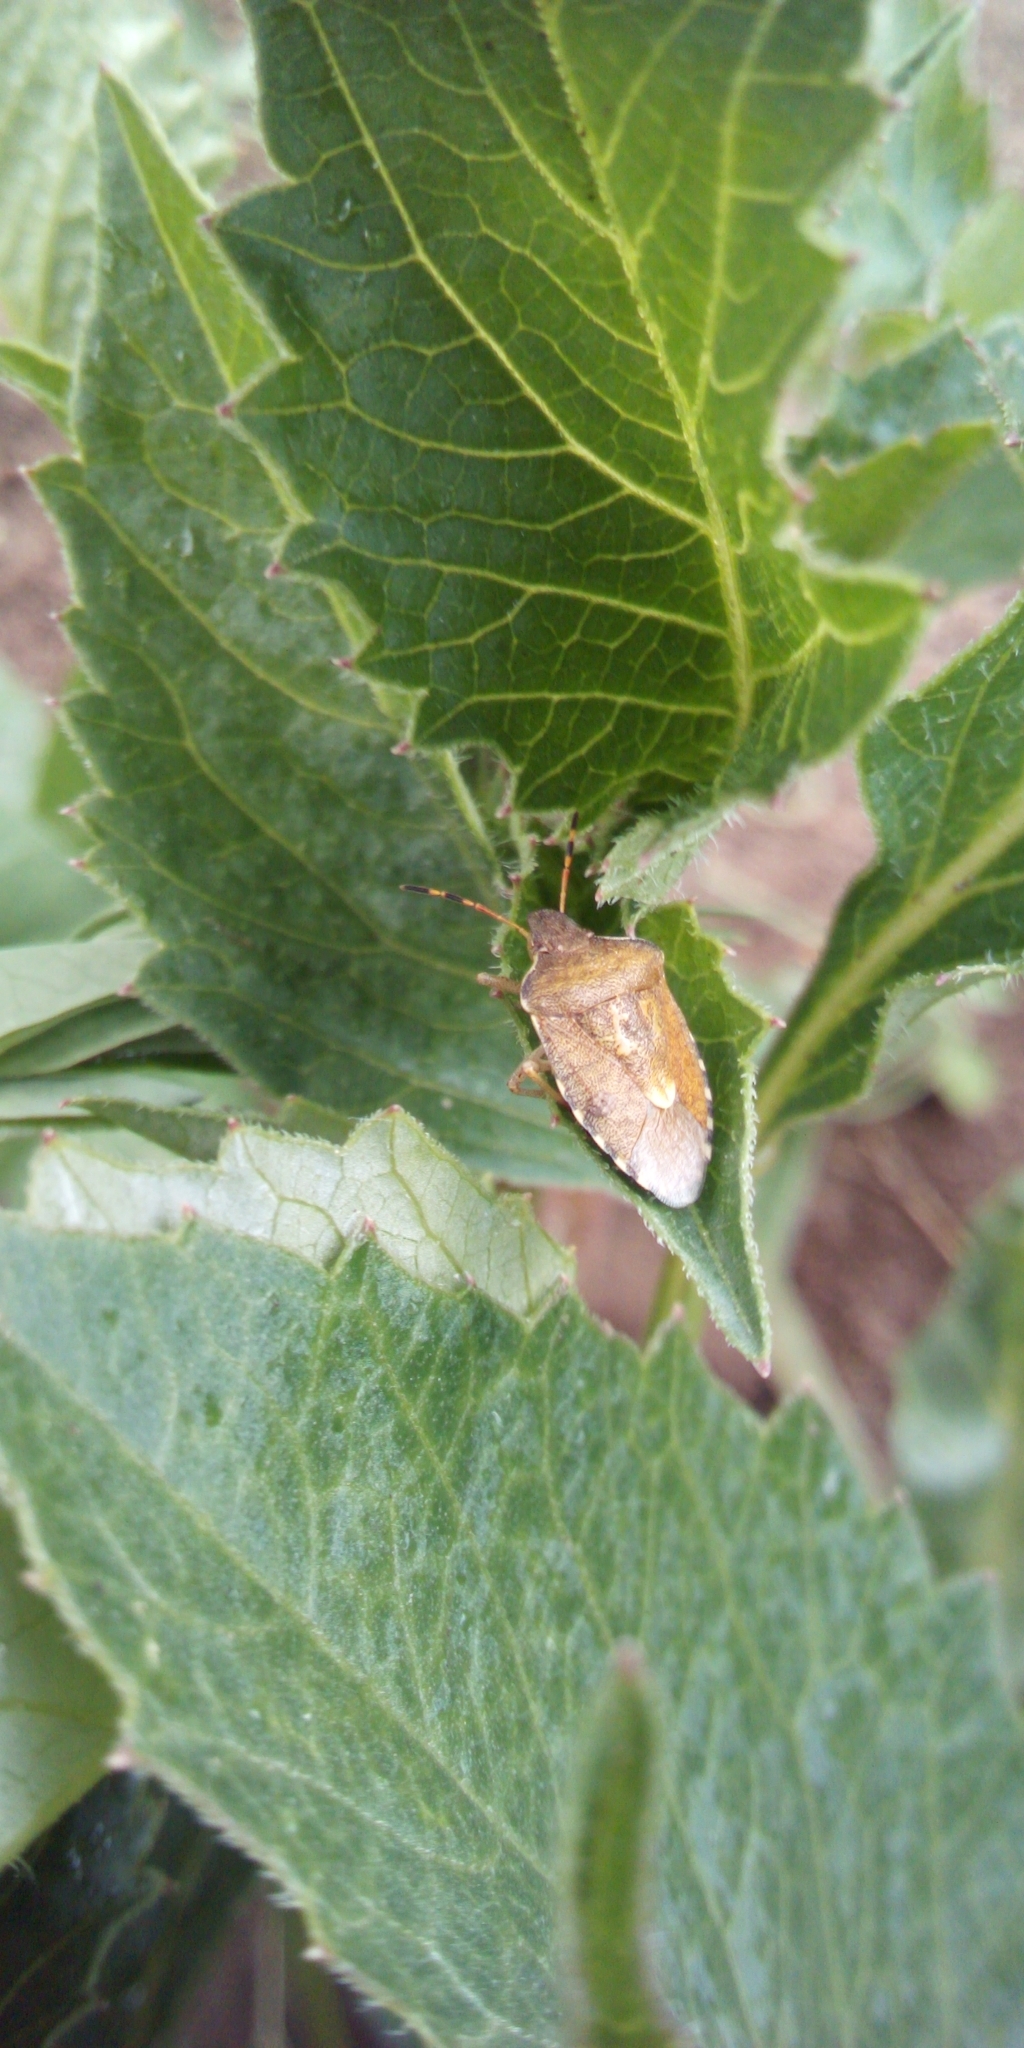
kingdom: Animalia
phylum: Arthropoda
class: Insecta
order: Hemiptera
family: Pentatomidae
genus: Holcostethus
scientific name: Holcostethus strictus
